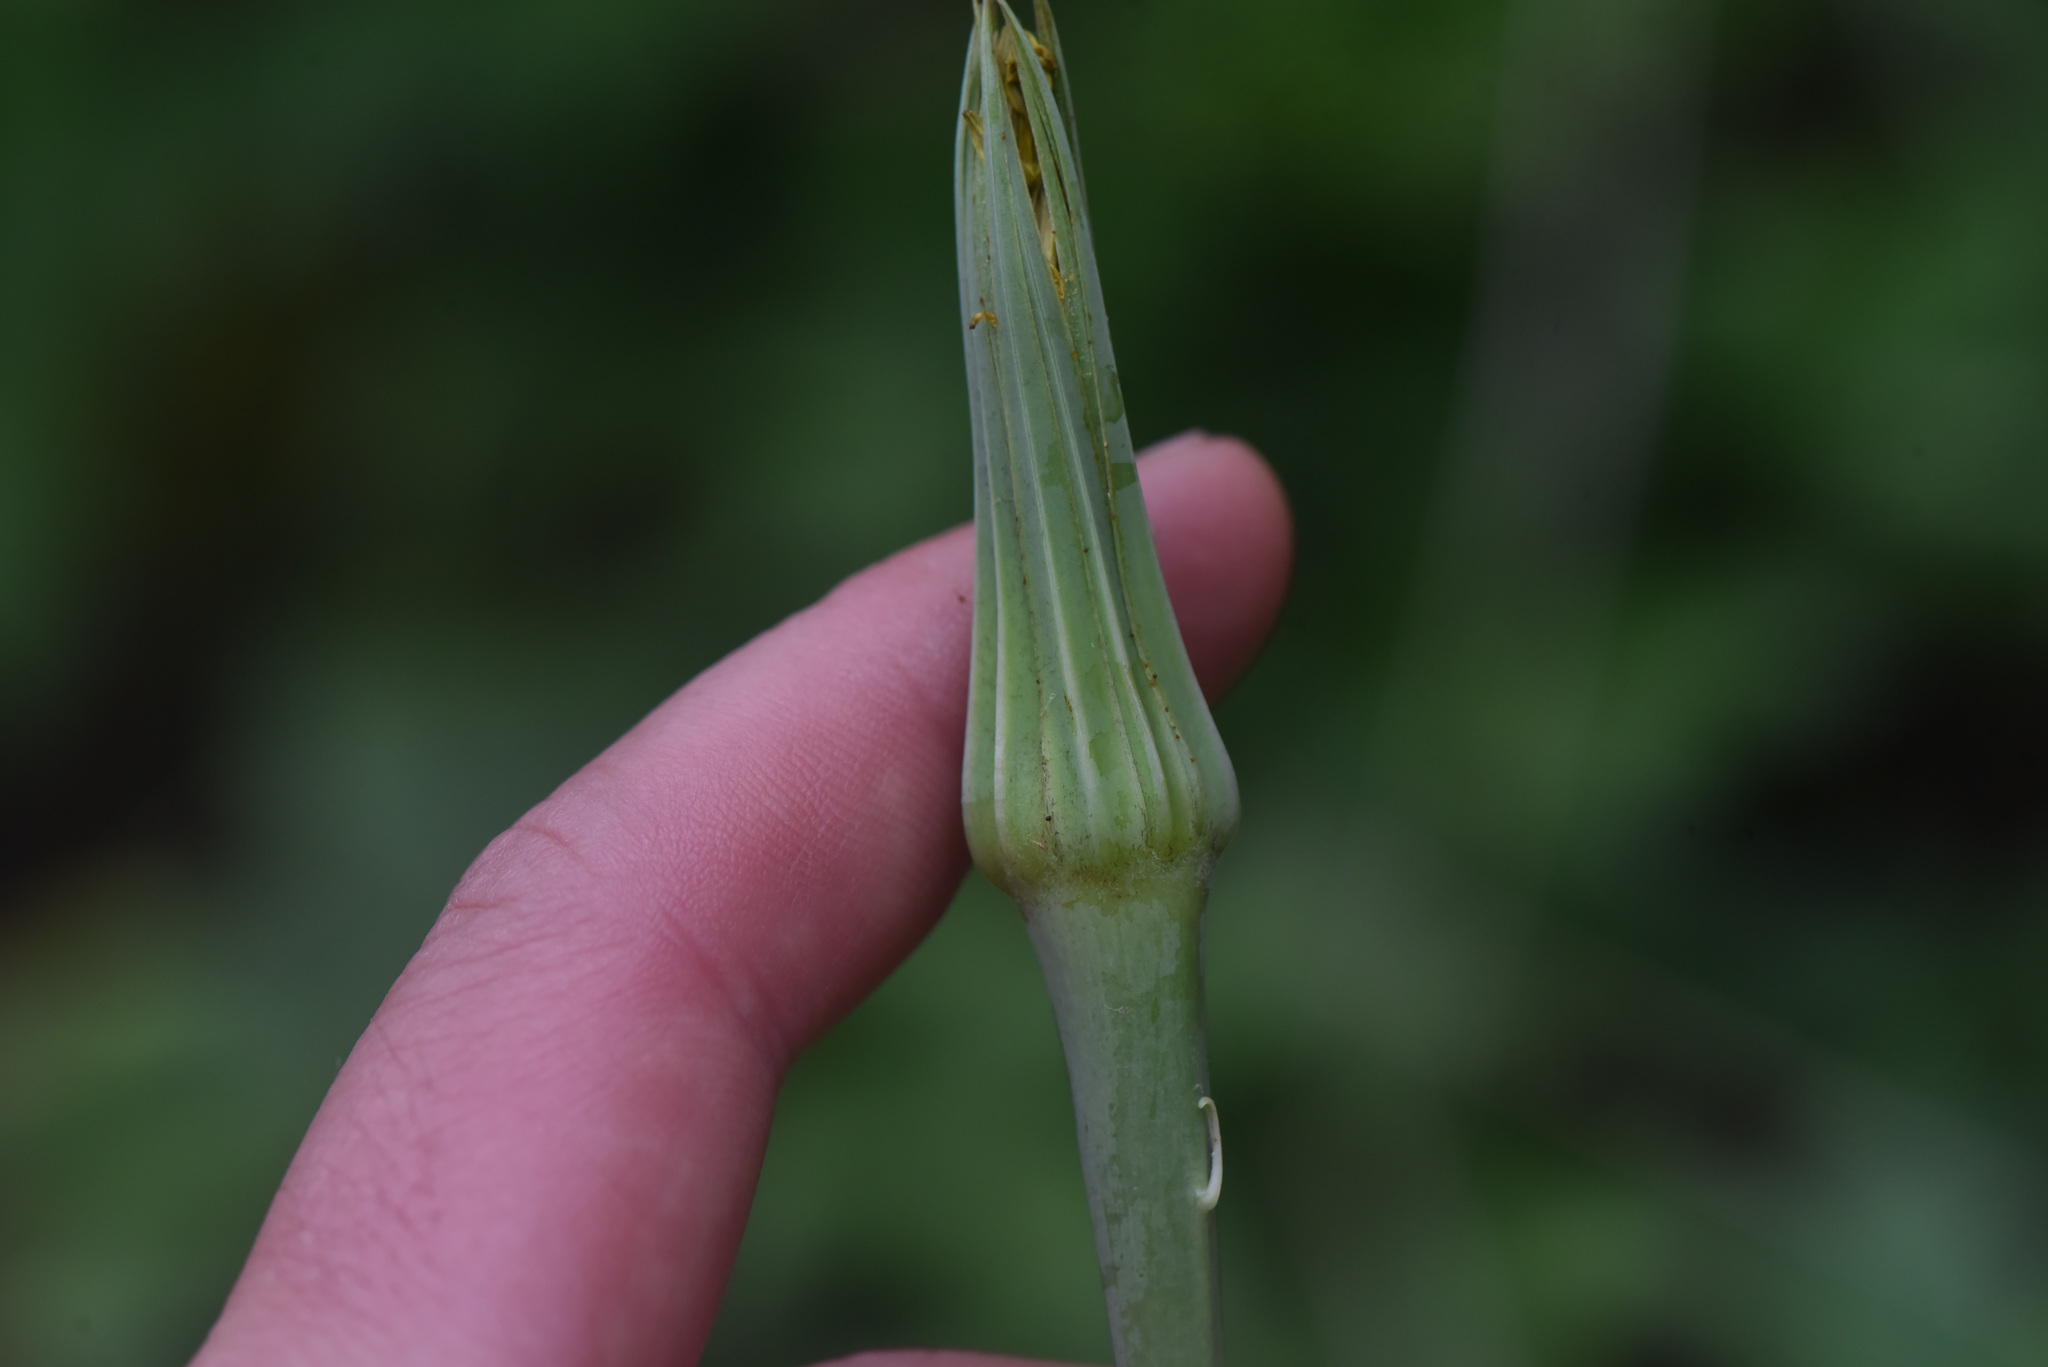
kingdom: Plantae
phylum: Tracheophyta
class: Magnoliopsida
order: Asterales
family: Asteraceae
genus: Tragopogon
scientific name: Tragopogon dubius
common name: Yellow salsify
